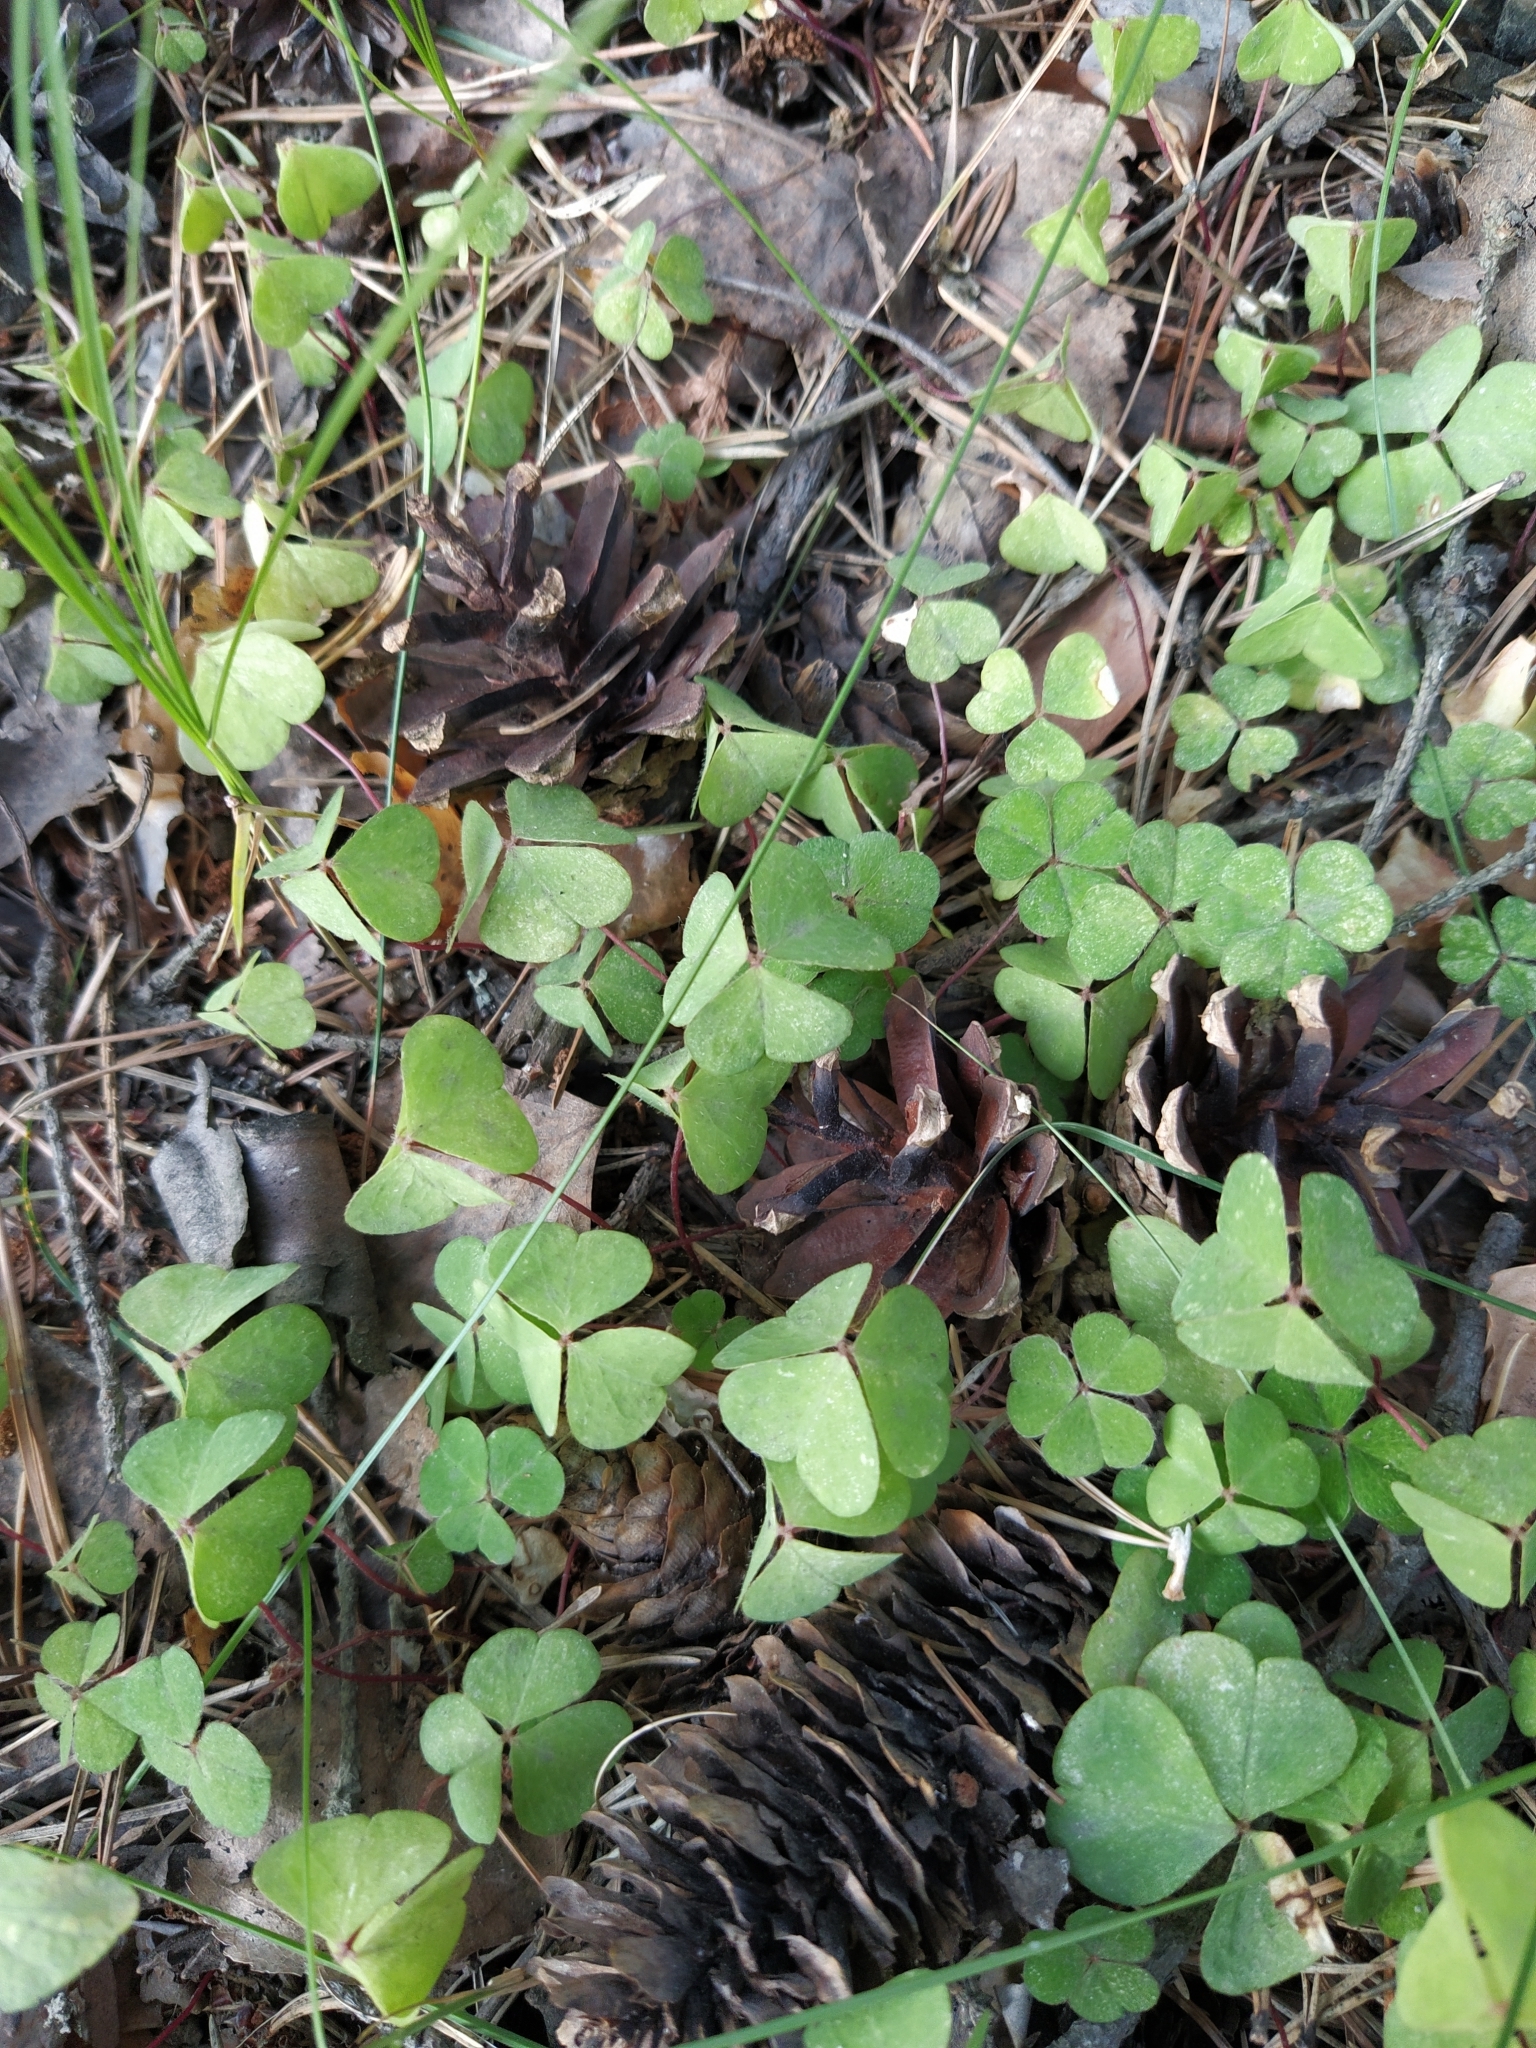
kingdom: Plantae
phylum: Tracheophyta
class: Magnoliopsida
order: Oxalidales
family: Oxalidaceae
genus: Oxalis
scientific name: Oxalis acetosella
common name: Wood-sorrel
